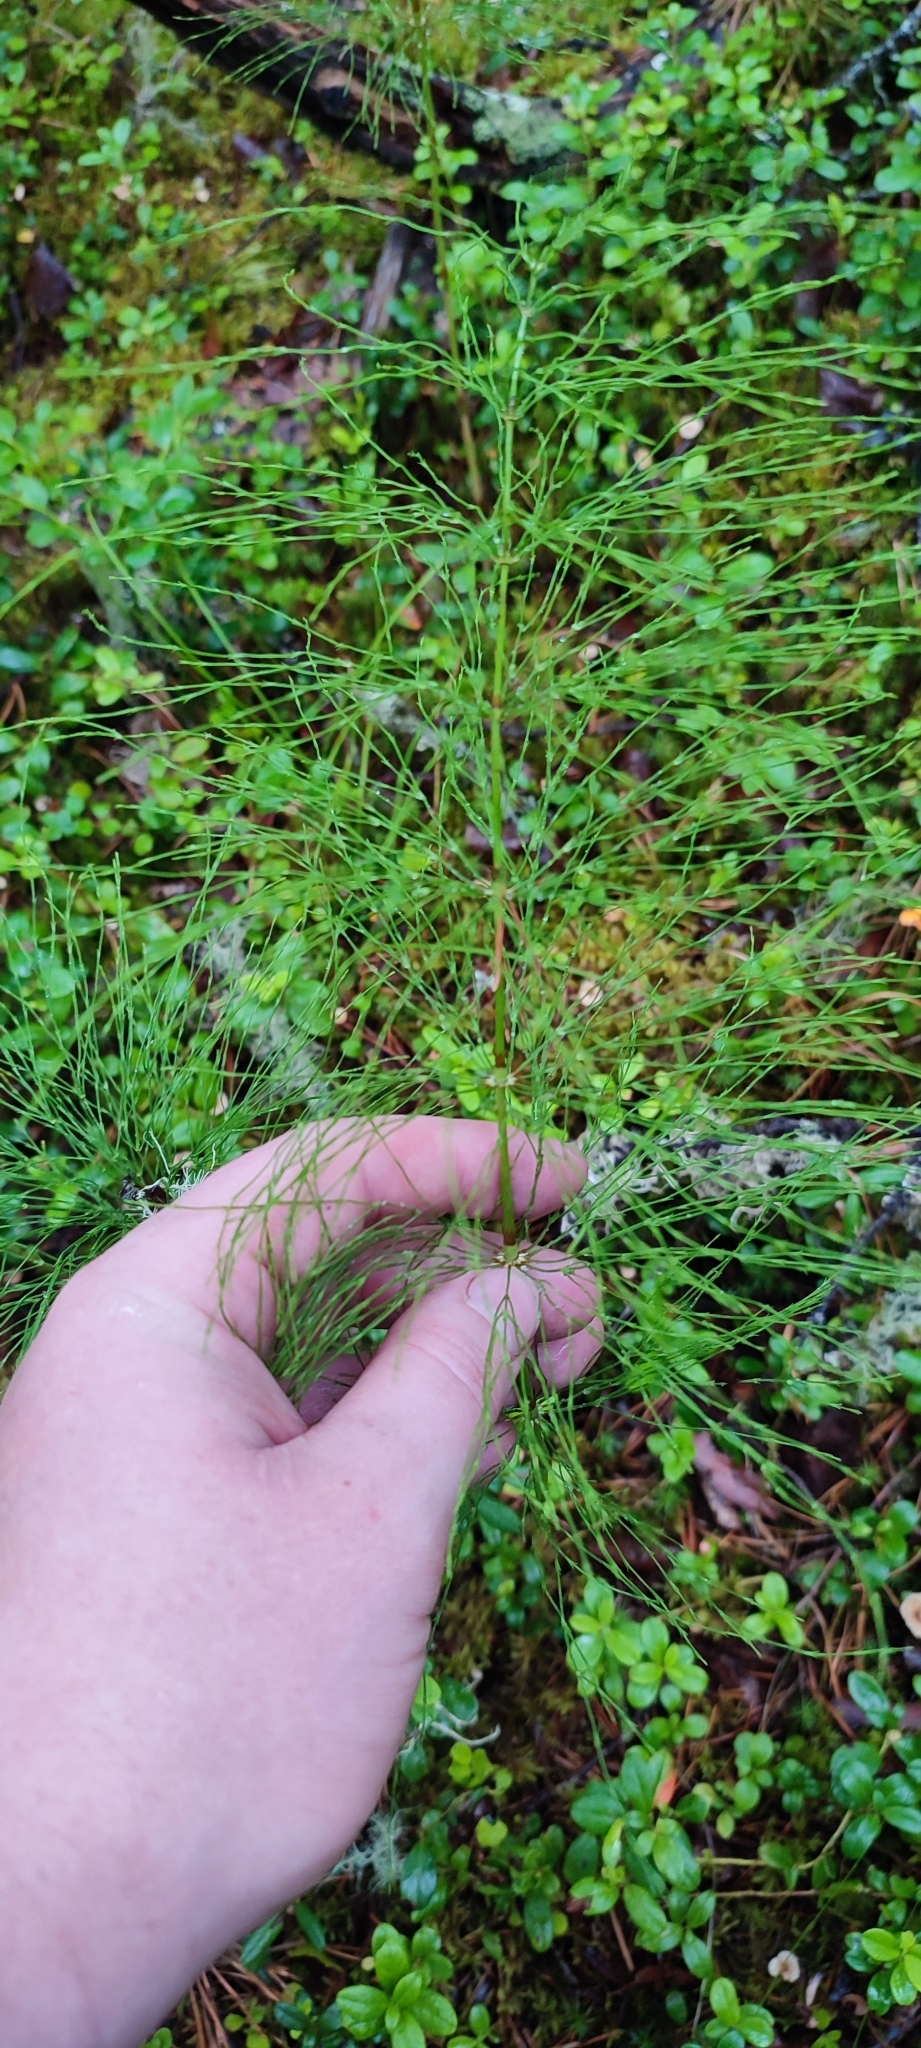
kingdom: Plantae
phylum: Tracheophyta
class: Polypodiopsida
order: Equisetales
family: Equisetaceae
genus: Equisetum
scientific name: Equisetum sylvaticum
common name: Wood horsetail
